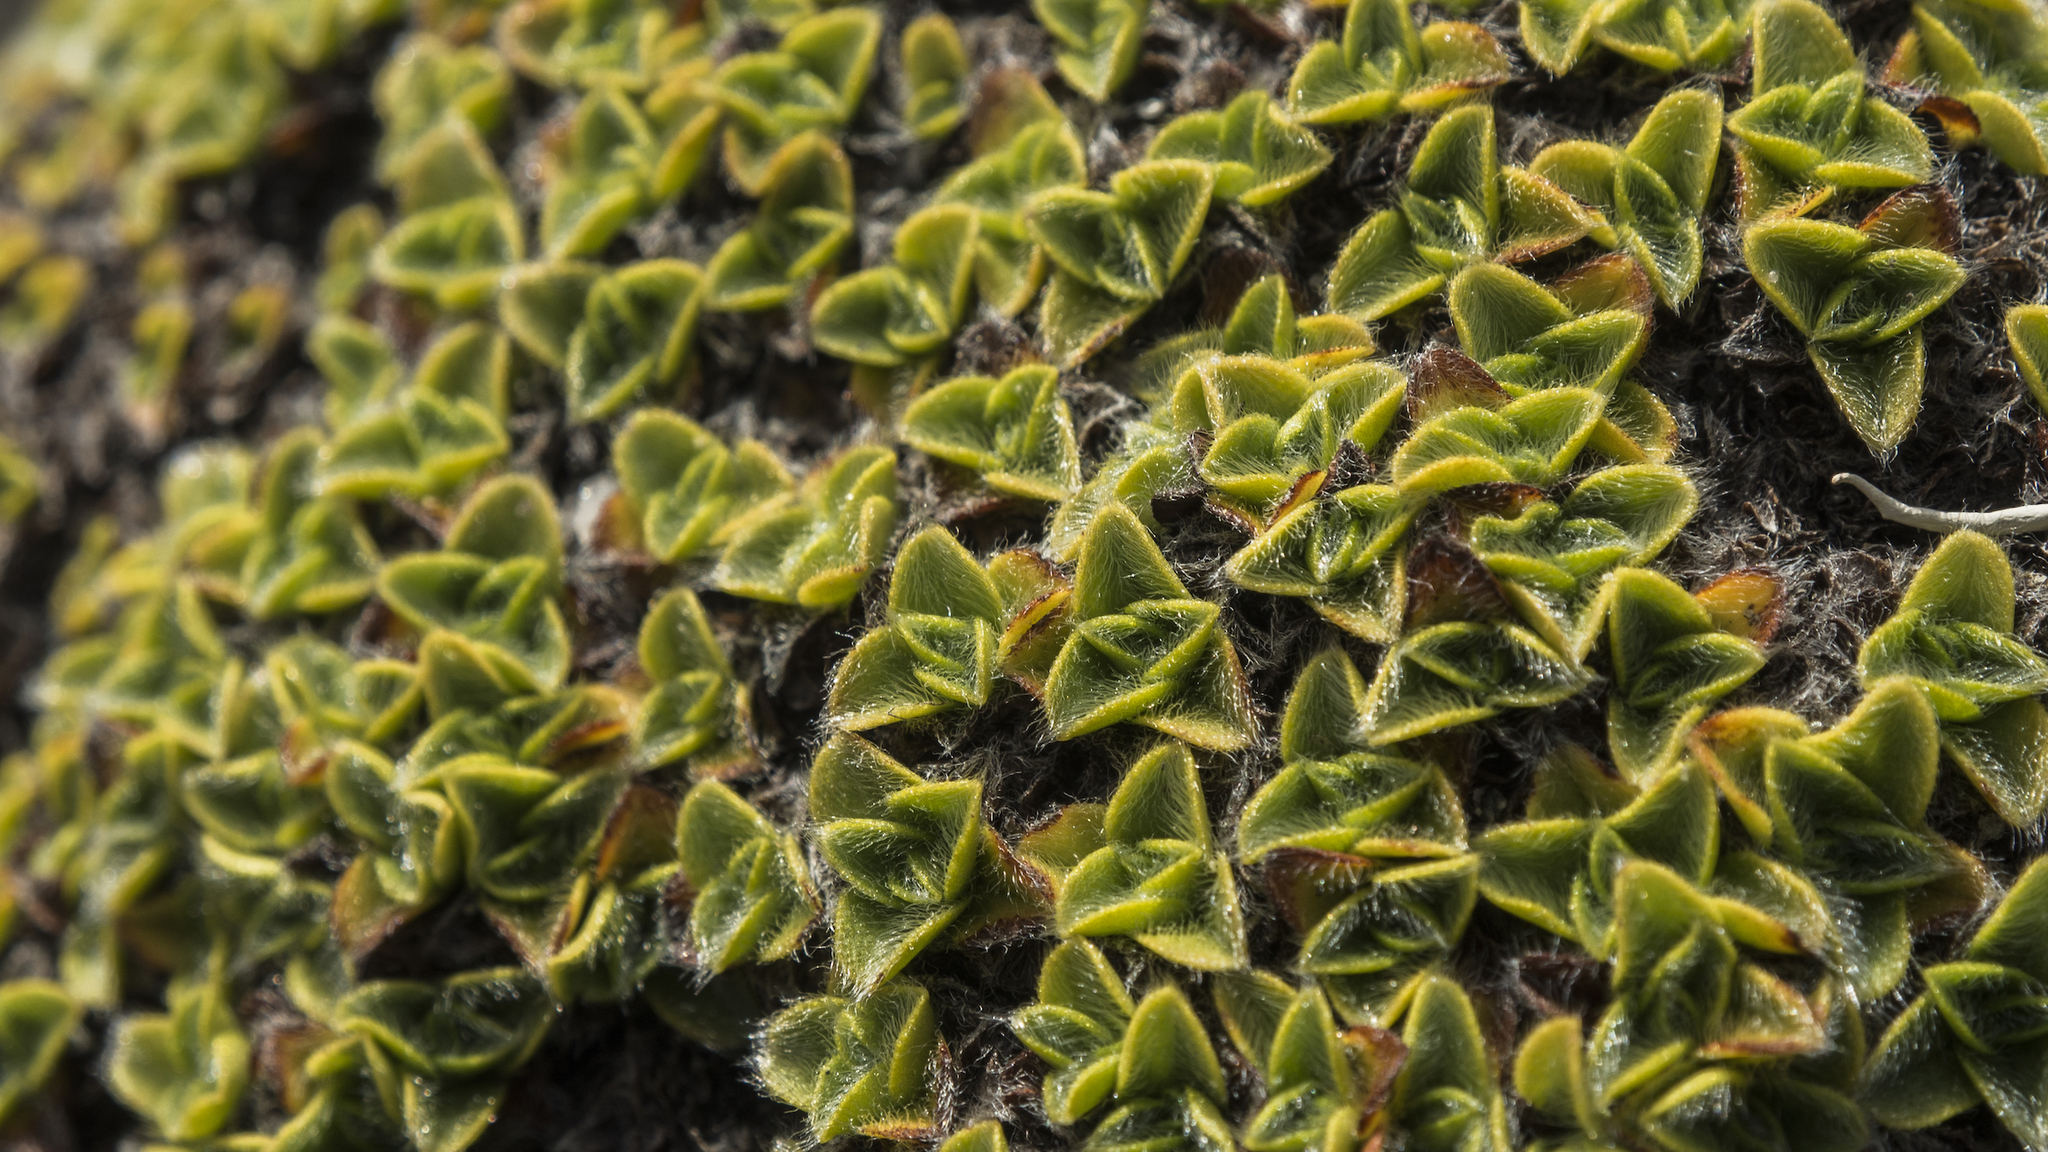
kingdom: Plantae
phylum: Tracheophyta
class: Magnoliopsida
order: Boraginales
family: Boraginaceae
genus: Myosotis
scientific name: Myosotis retrorsa
